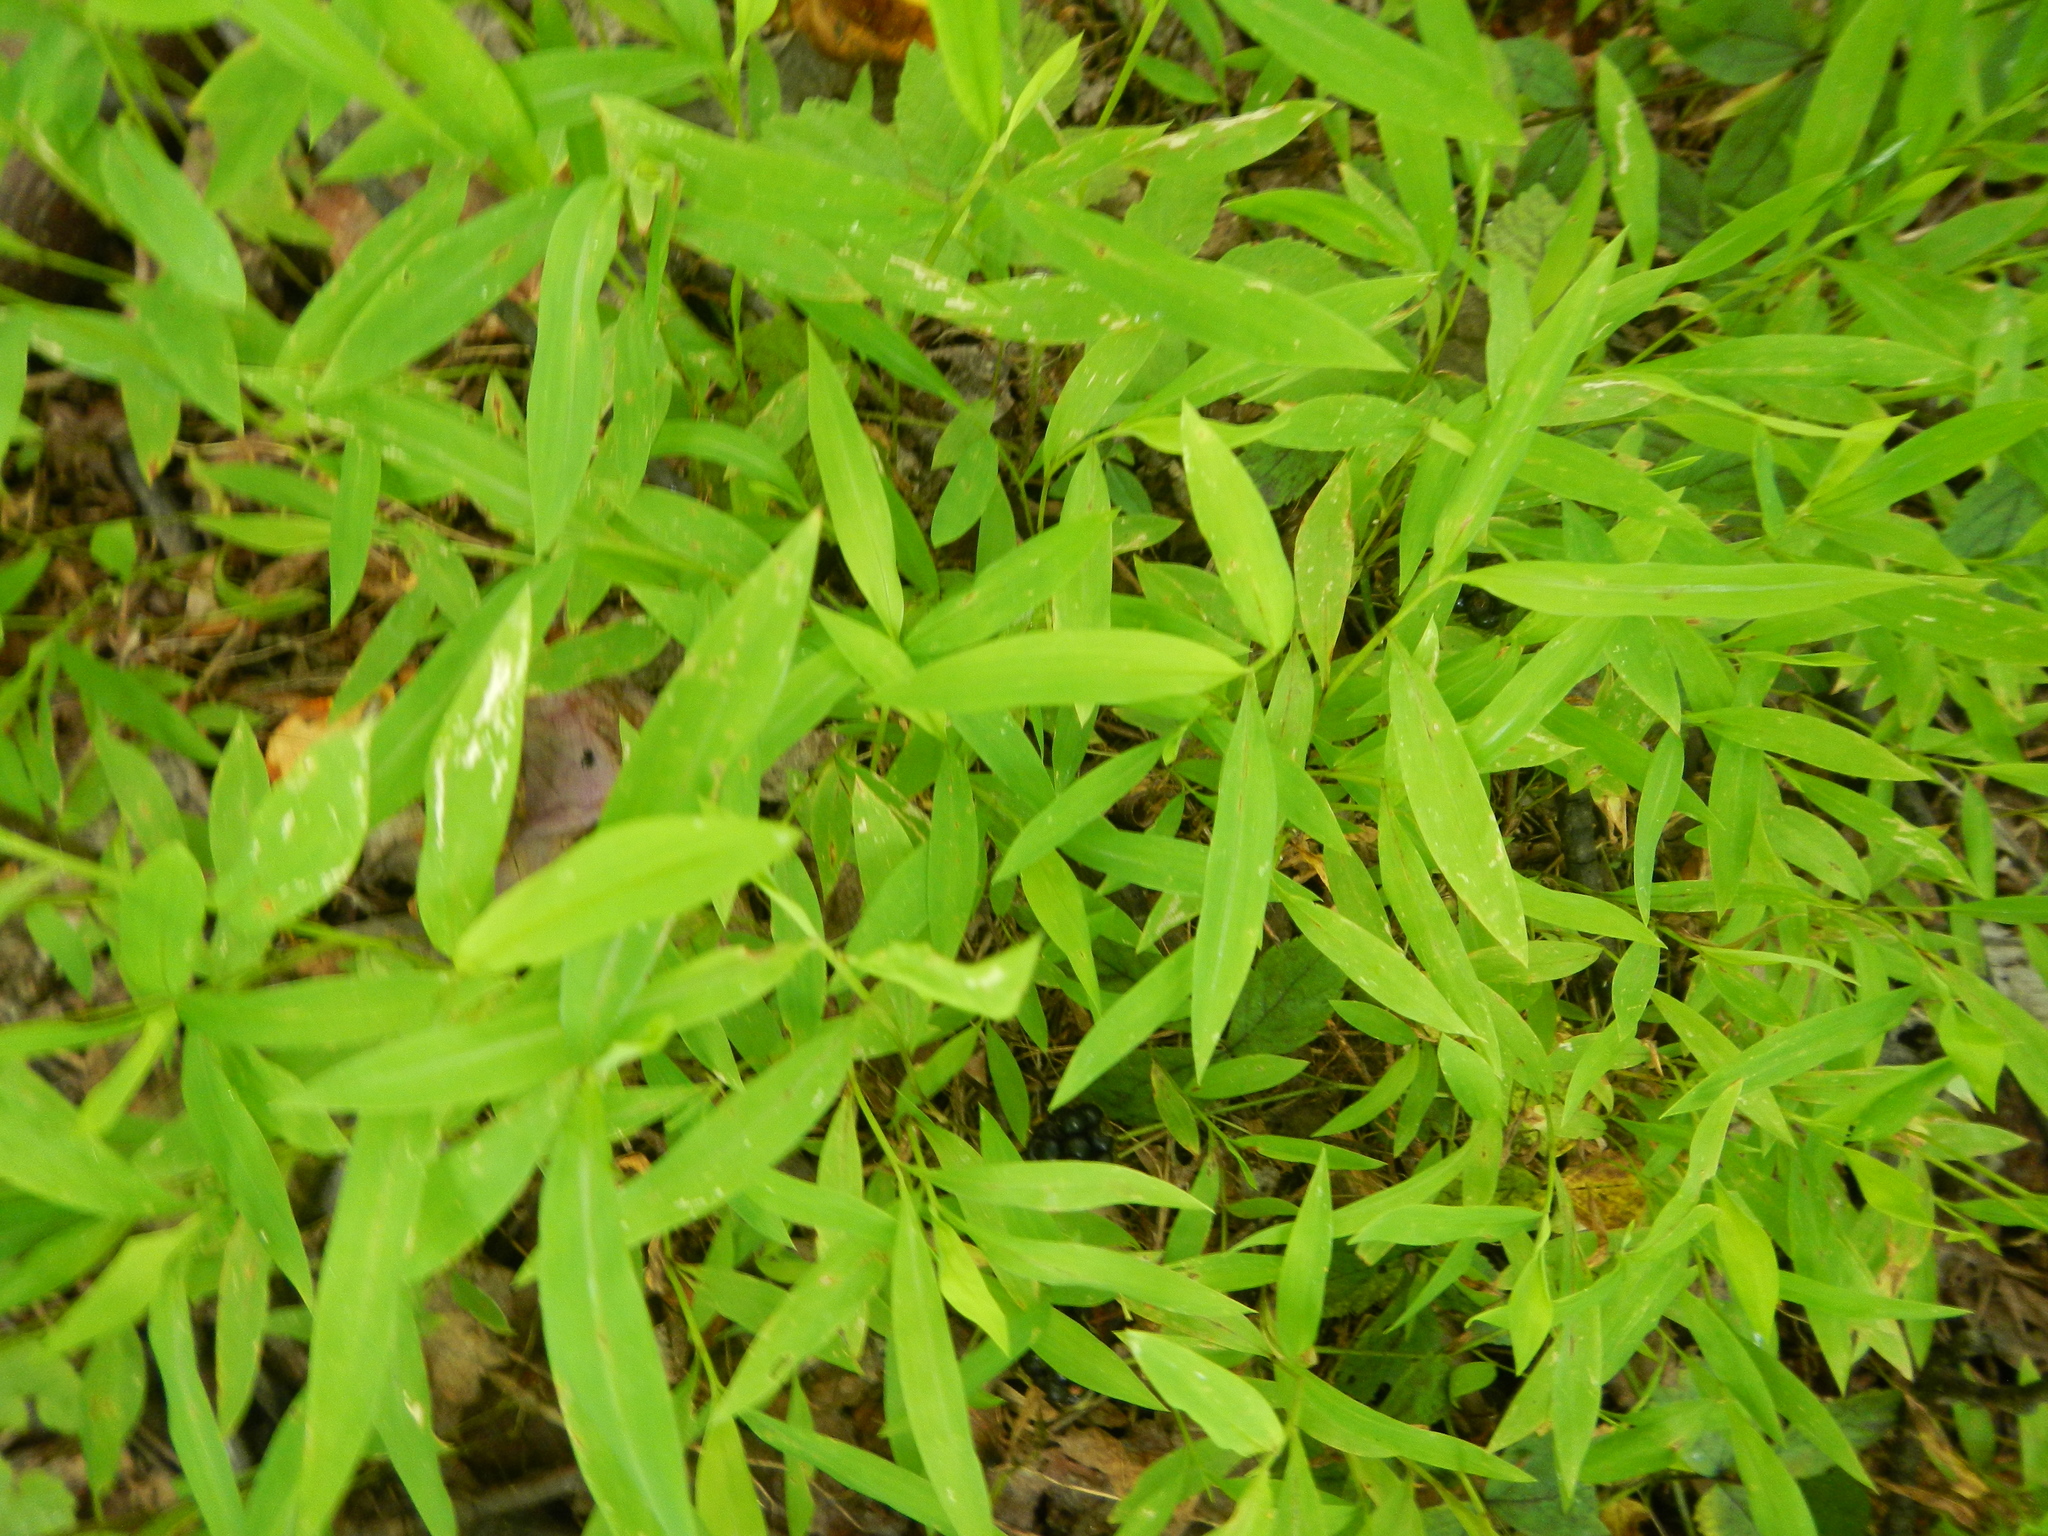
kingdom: Plantae
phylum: Tracheophyta
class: Liliopsida
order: Poales
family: Poaceae
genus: Microstegium
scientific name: Microstegium vimineum
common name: Japanese stiltgrass
